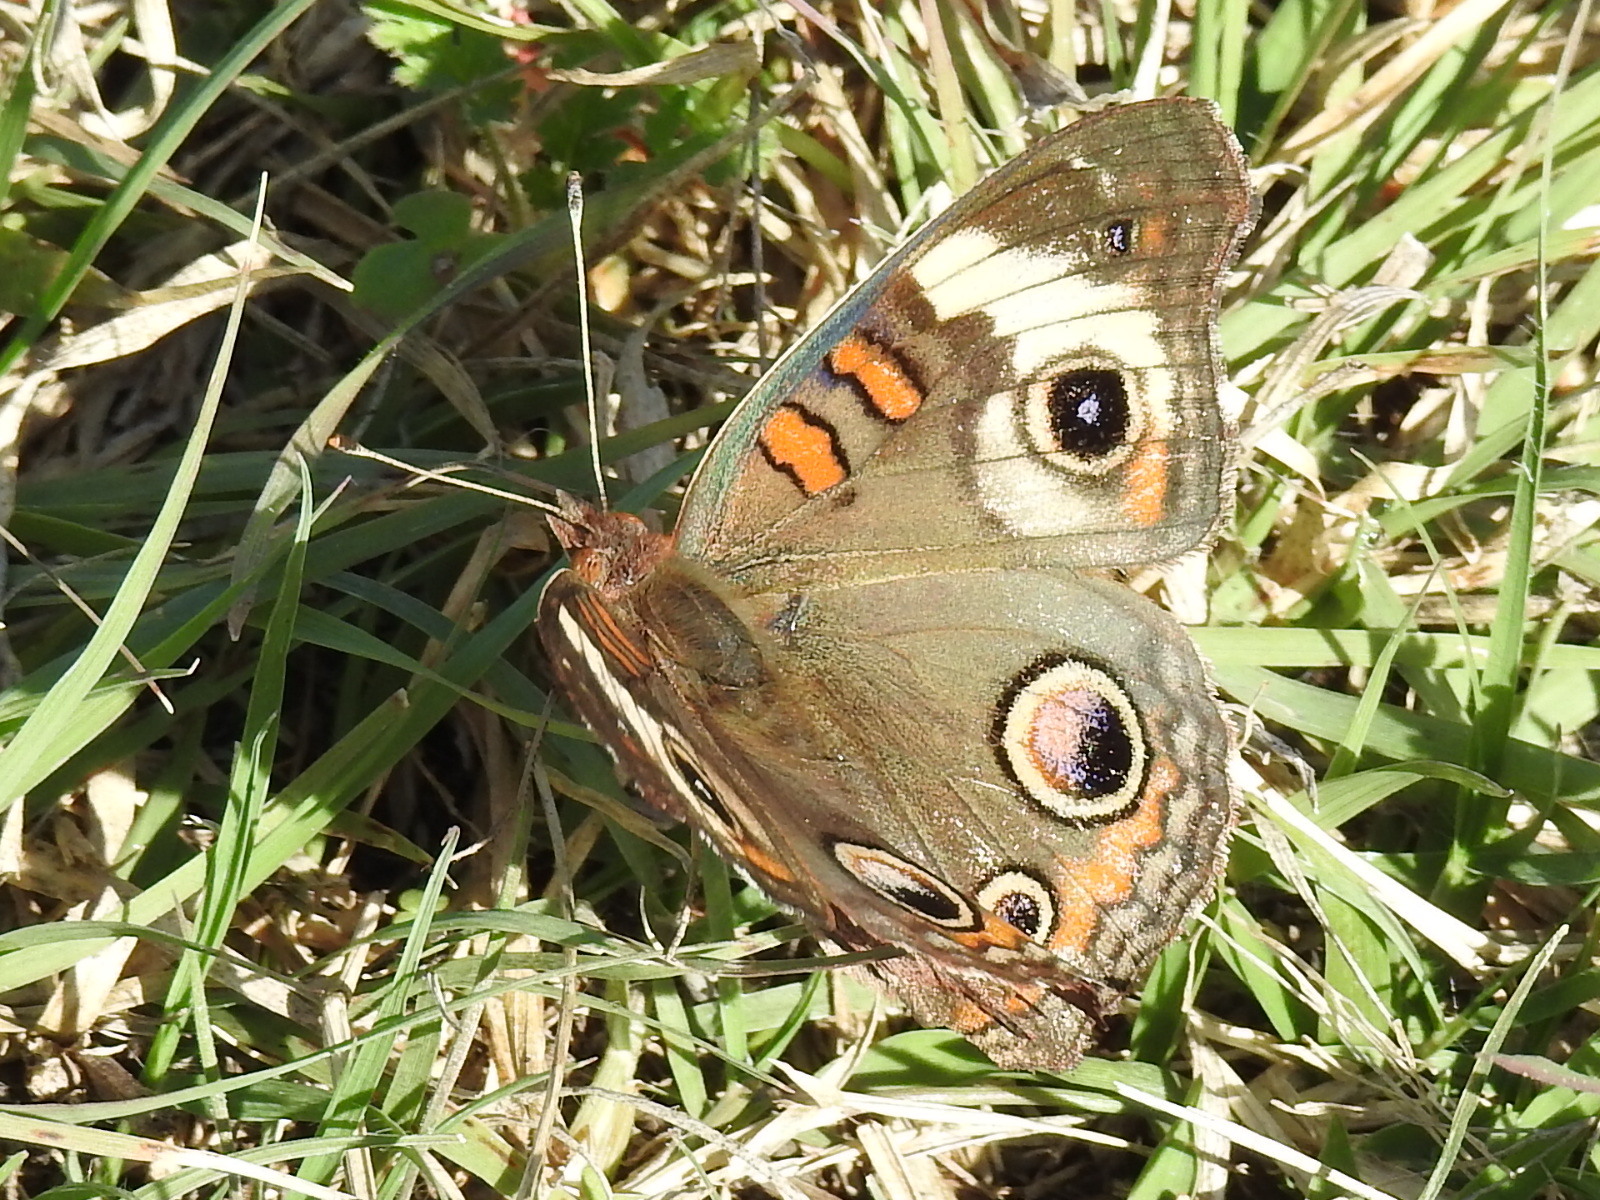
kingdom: Animalia
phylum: Arthropoda
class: Insecta
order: Lepidoptera
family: Nymphalidae
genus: Junonia
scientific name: Junonia coenia
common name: Common buckeye
